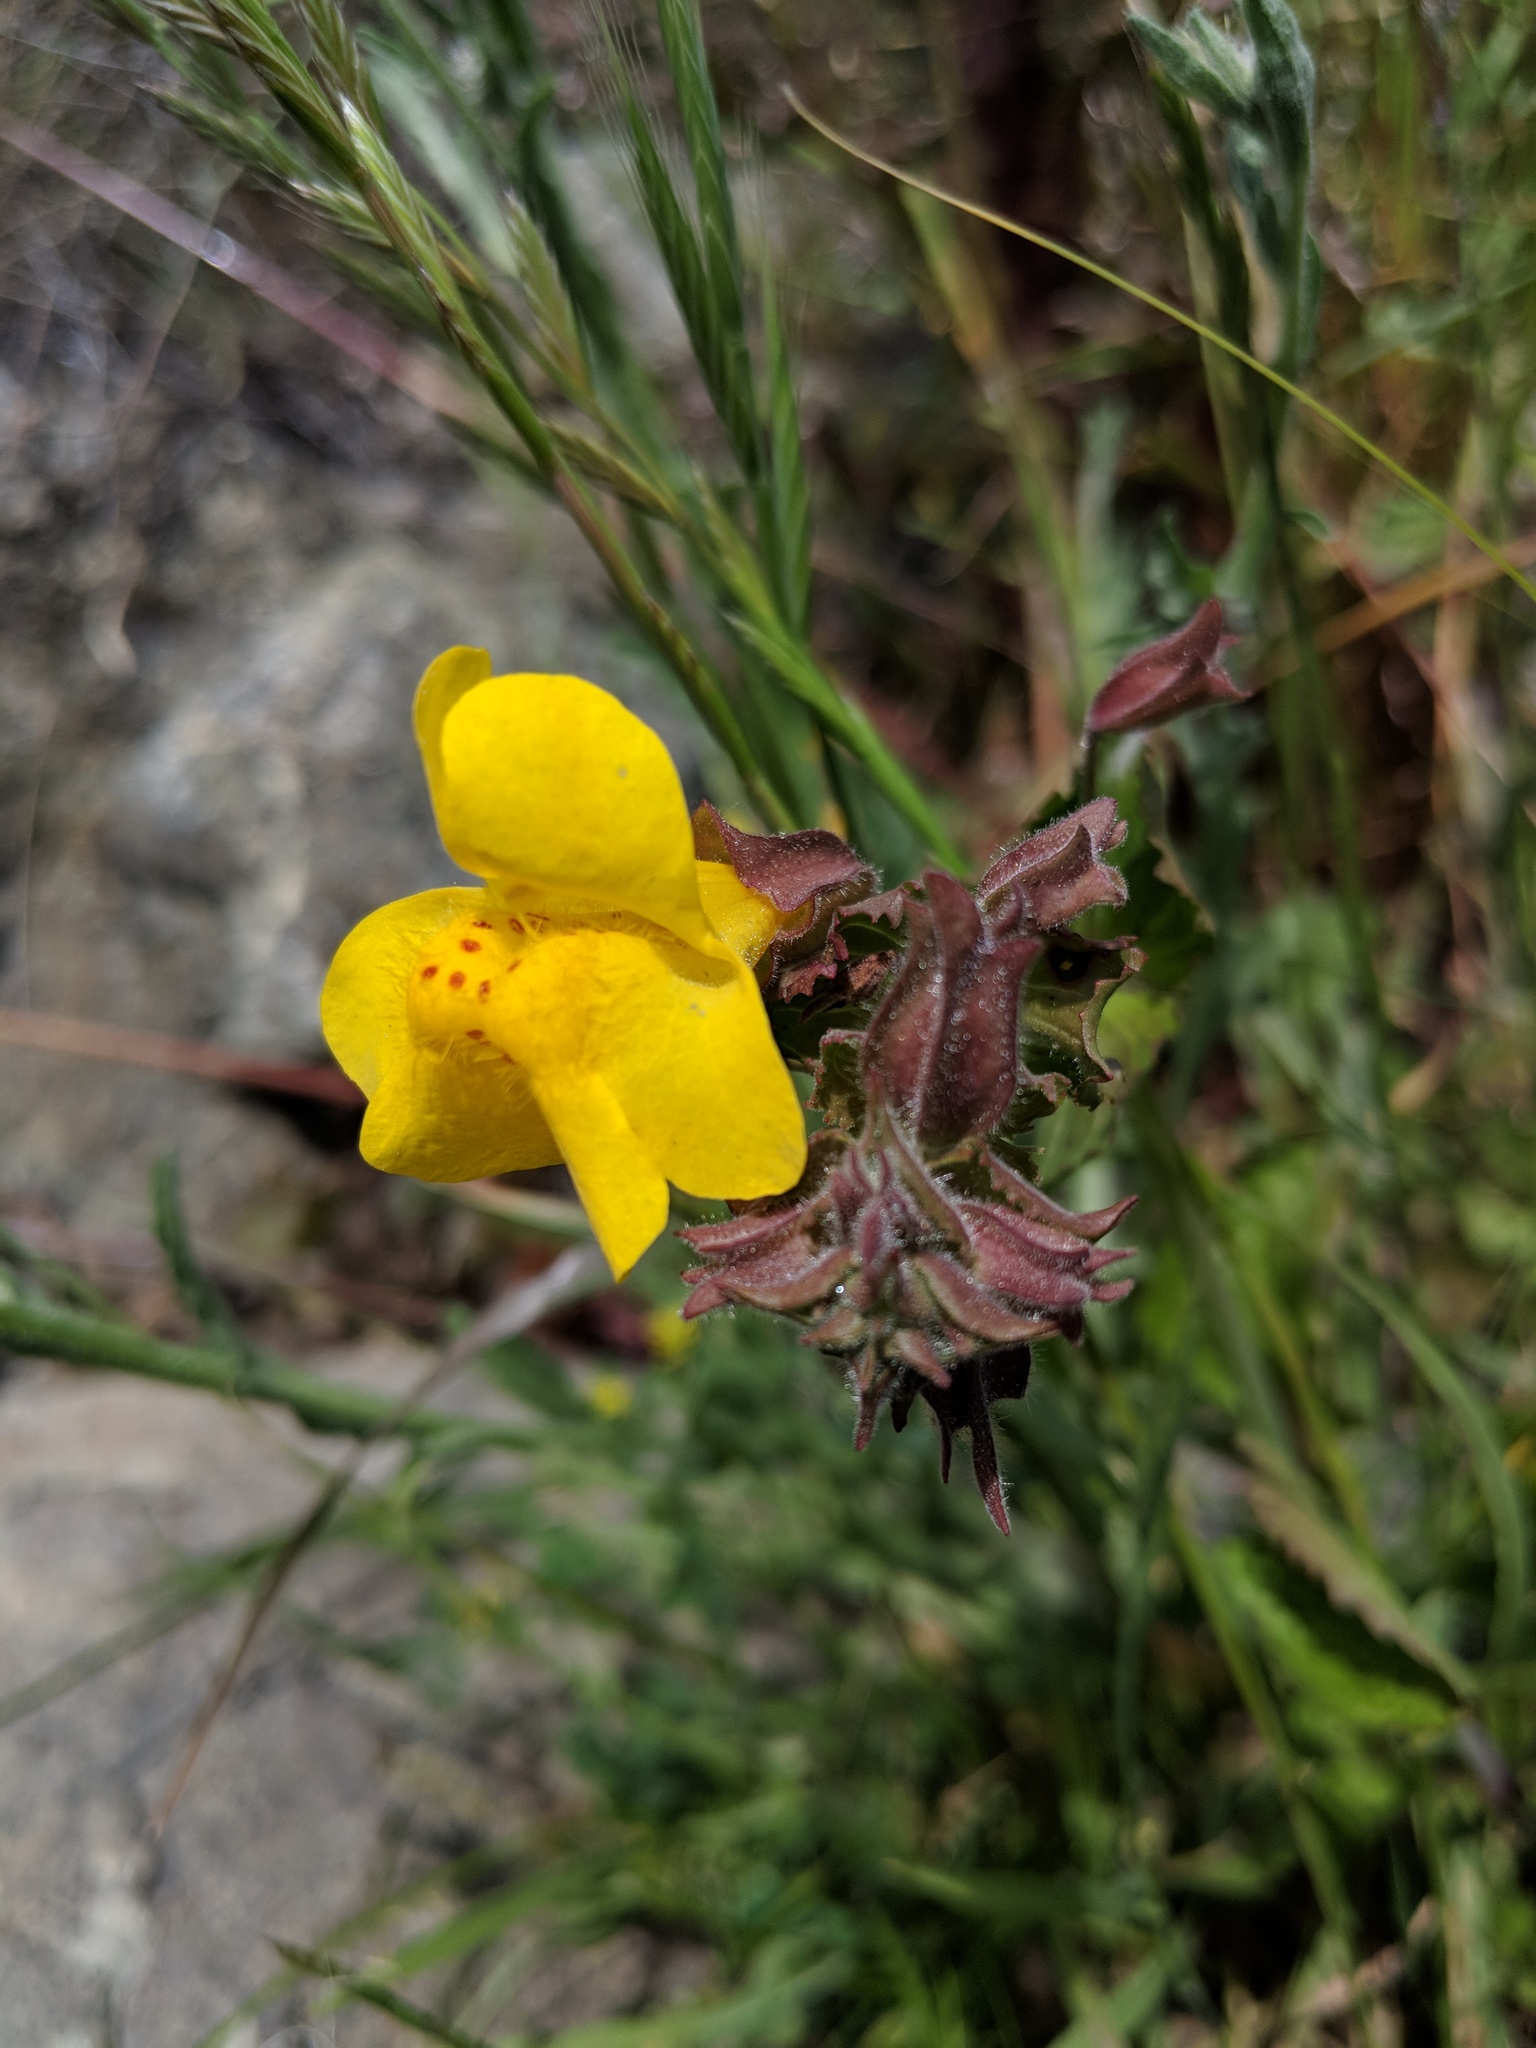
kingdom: Plantae
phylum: Tracheophyta
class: Magnoliopsida
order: Lamiales
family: Phrymaceae
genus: Erythranthe
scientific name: Erythranthe guttata
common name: Monkeyflower
